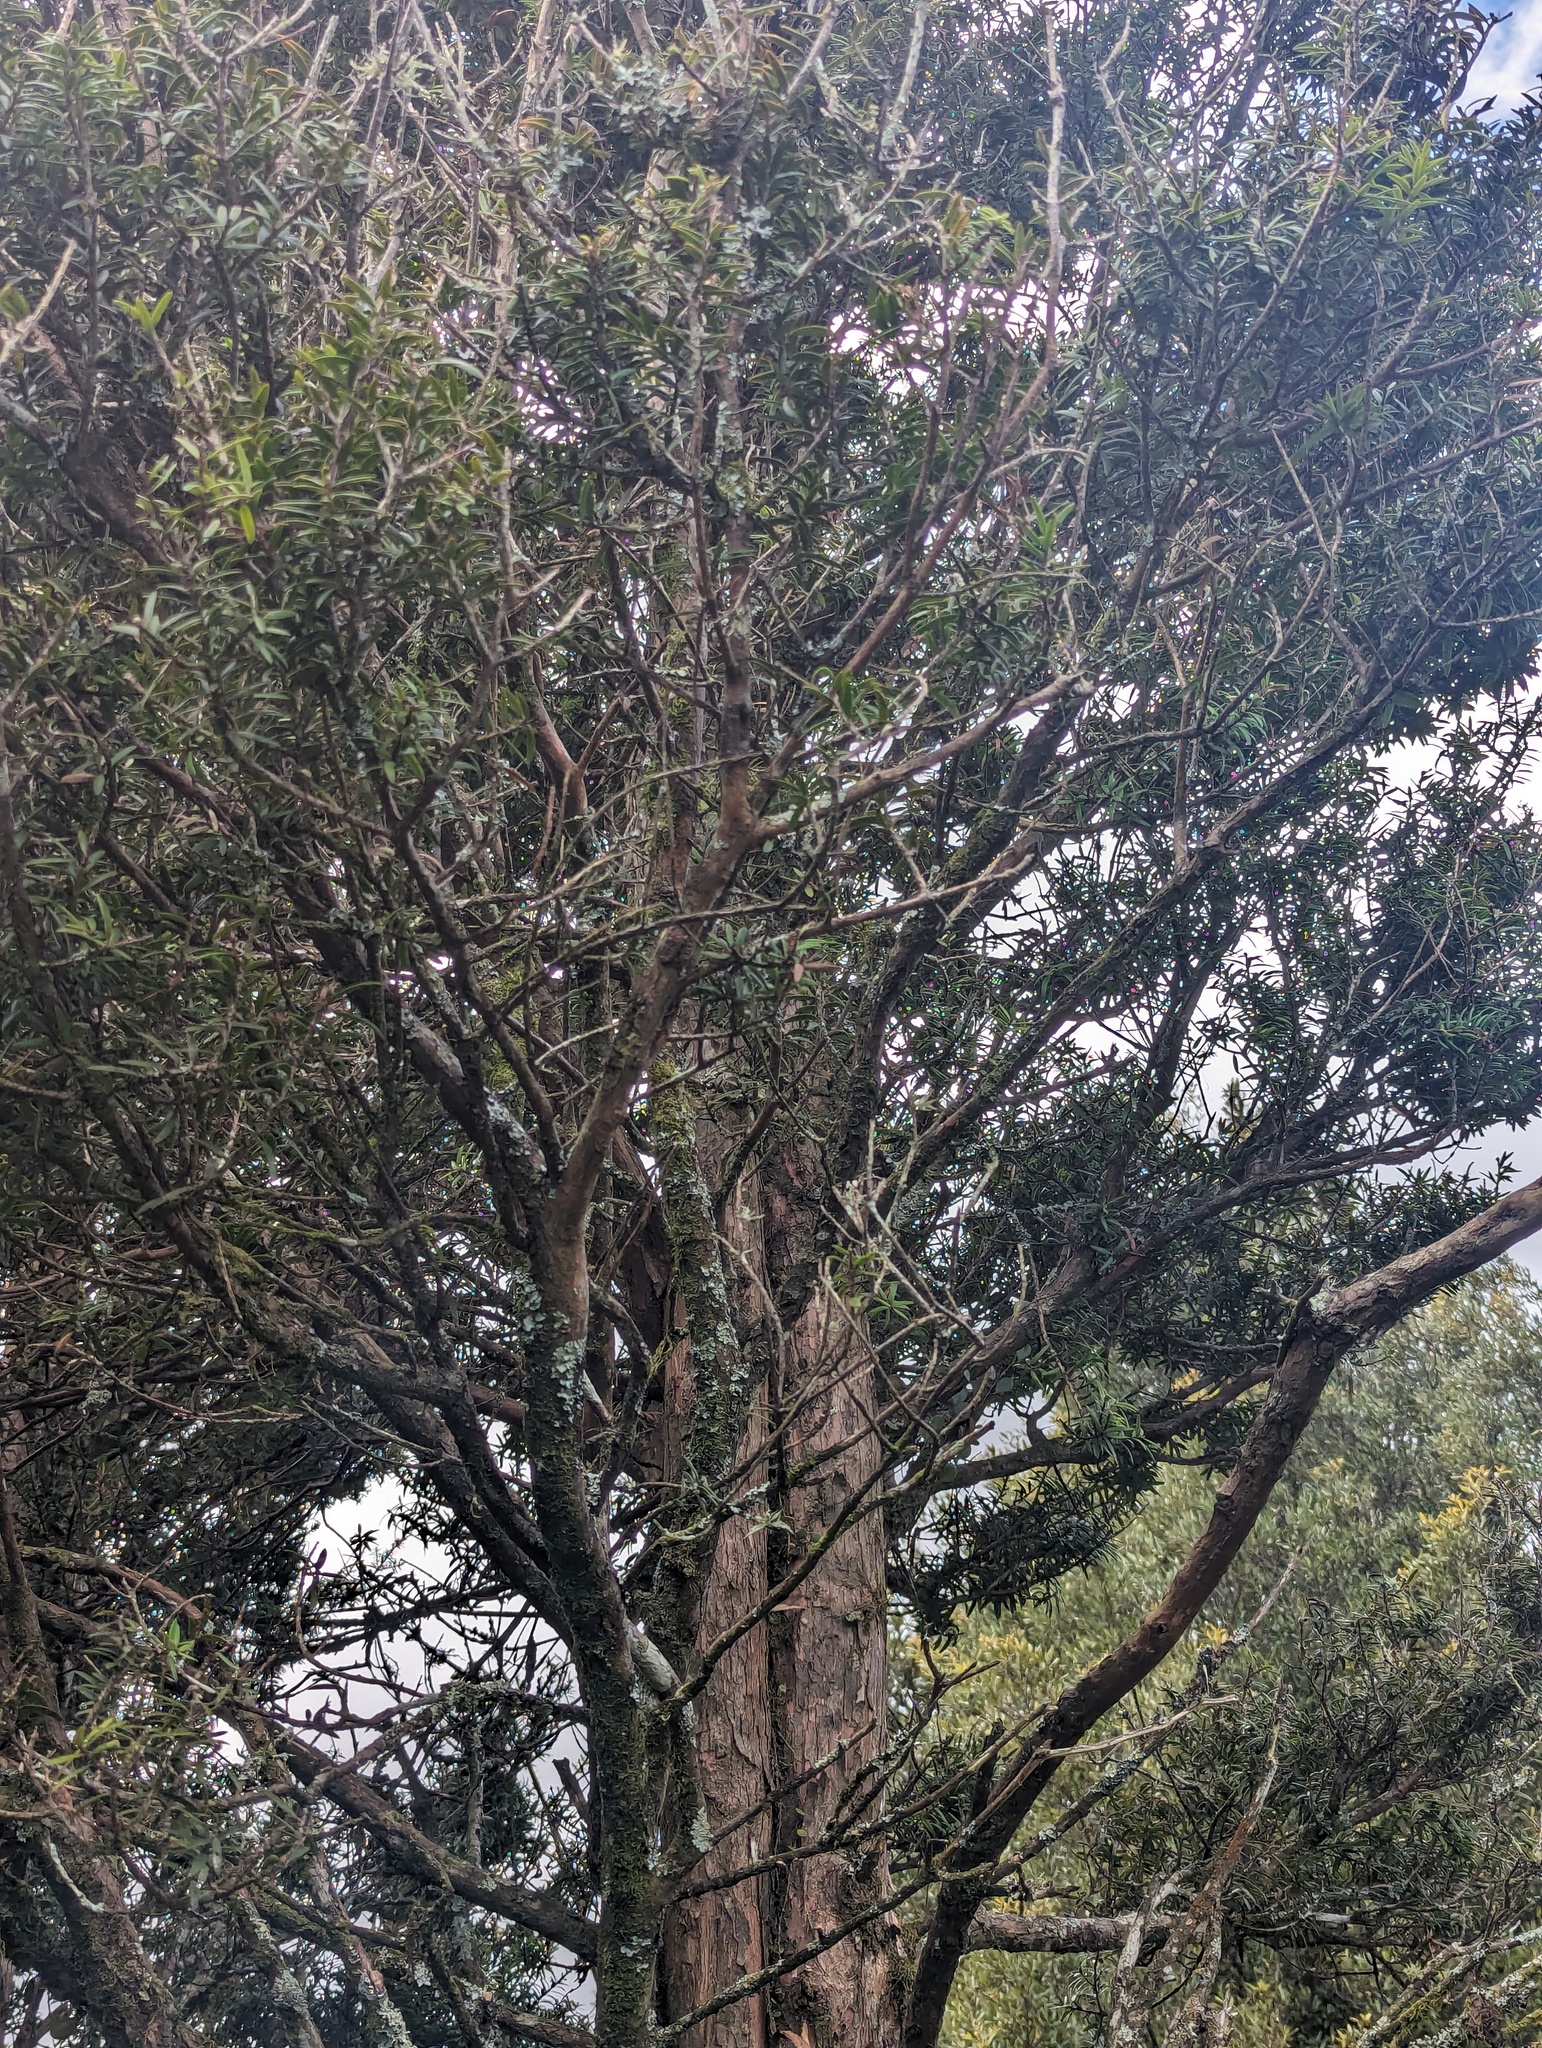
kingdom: Plantae
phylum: Tracheophyta
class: Pinopsida
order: Pinales
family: Podocarpaceae
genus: Podocarpus
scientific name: Podocarpus totara
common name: Totara
